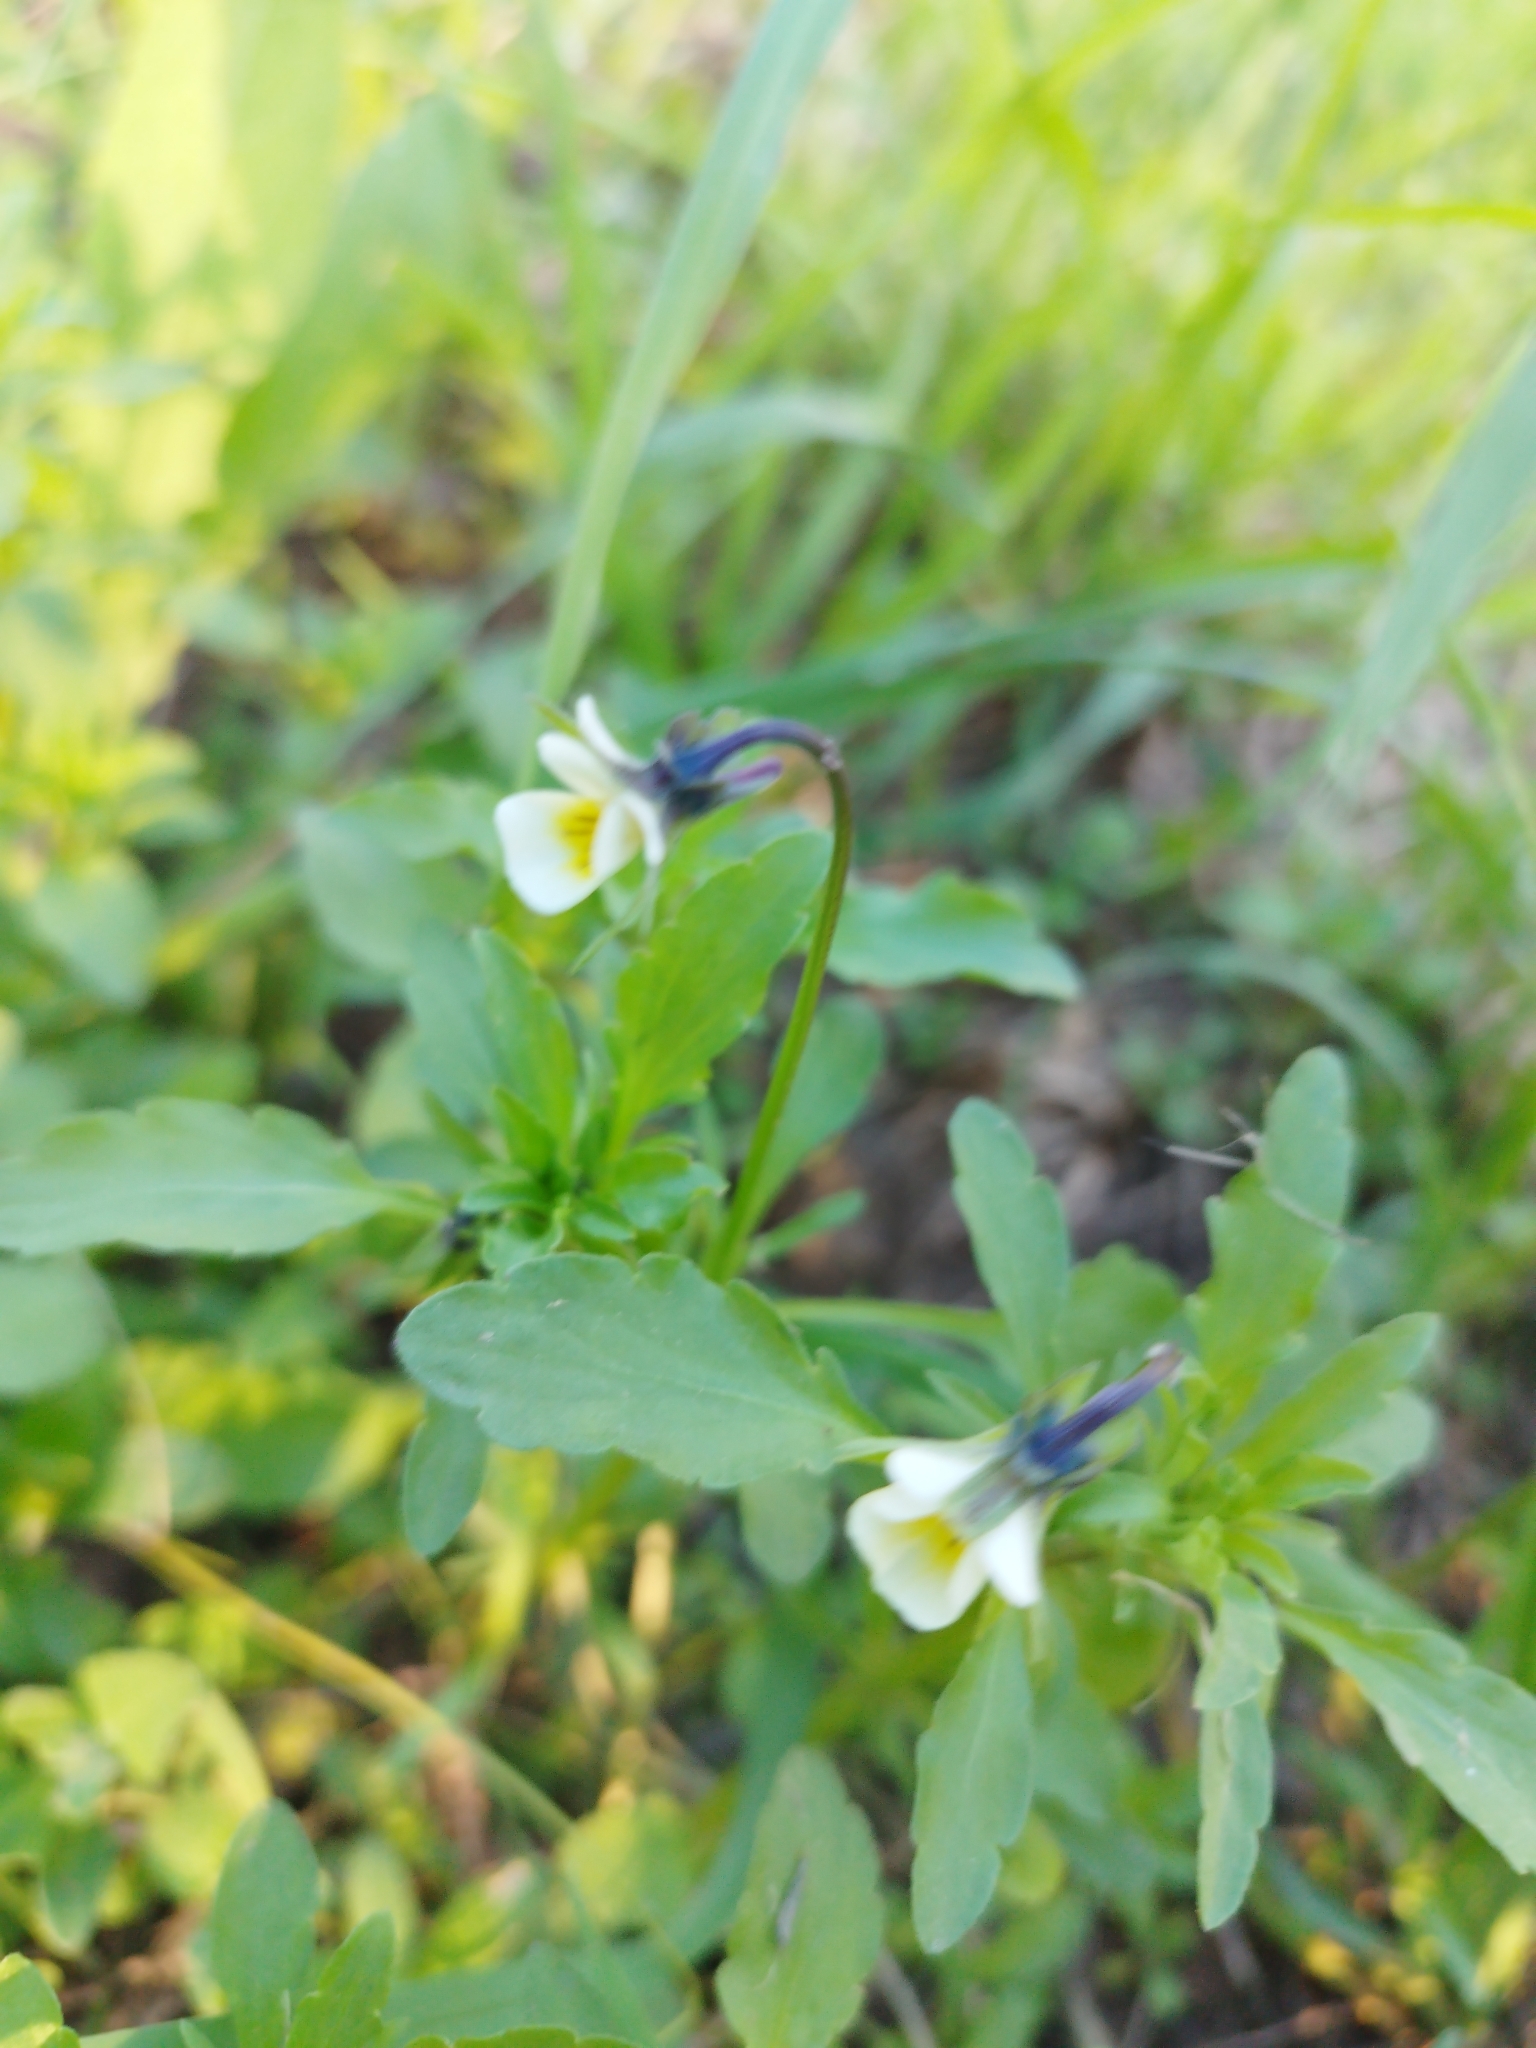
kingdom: Plantae
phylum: Tracheophyta
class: Magnoliopsida
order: Malpighiales
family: Violaceae
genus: Viola
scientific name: Viola arvensis
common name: Field pansy
